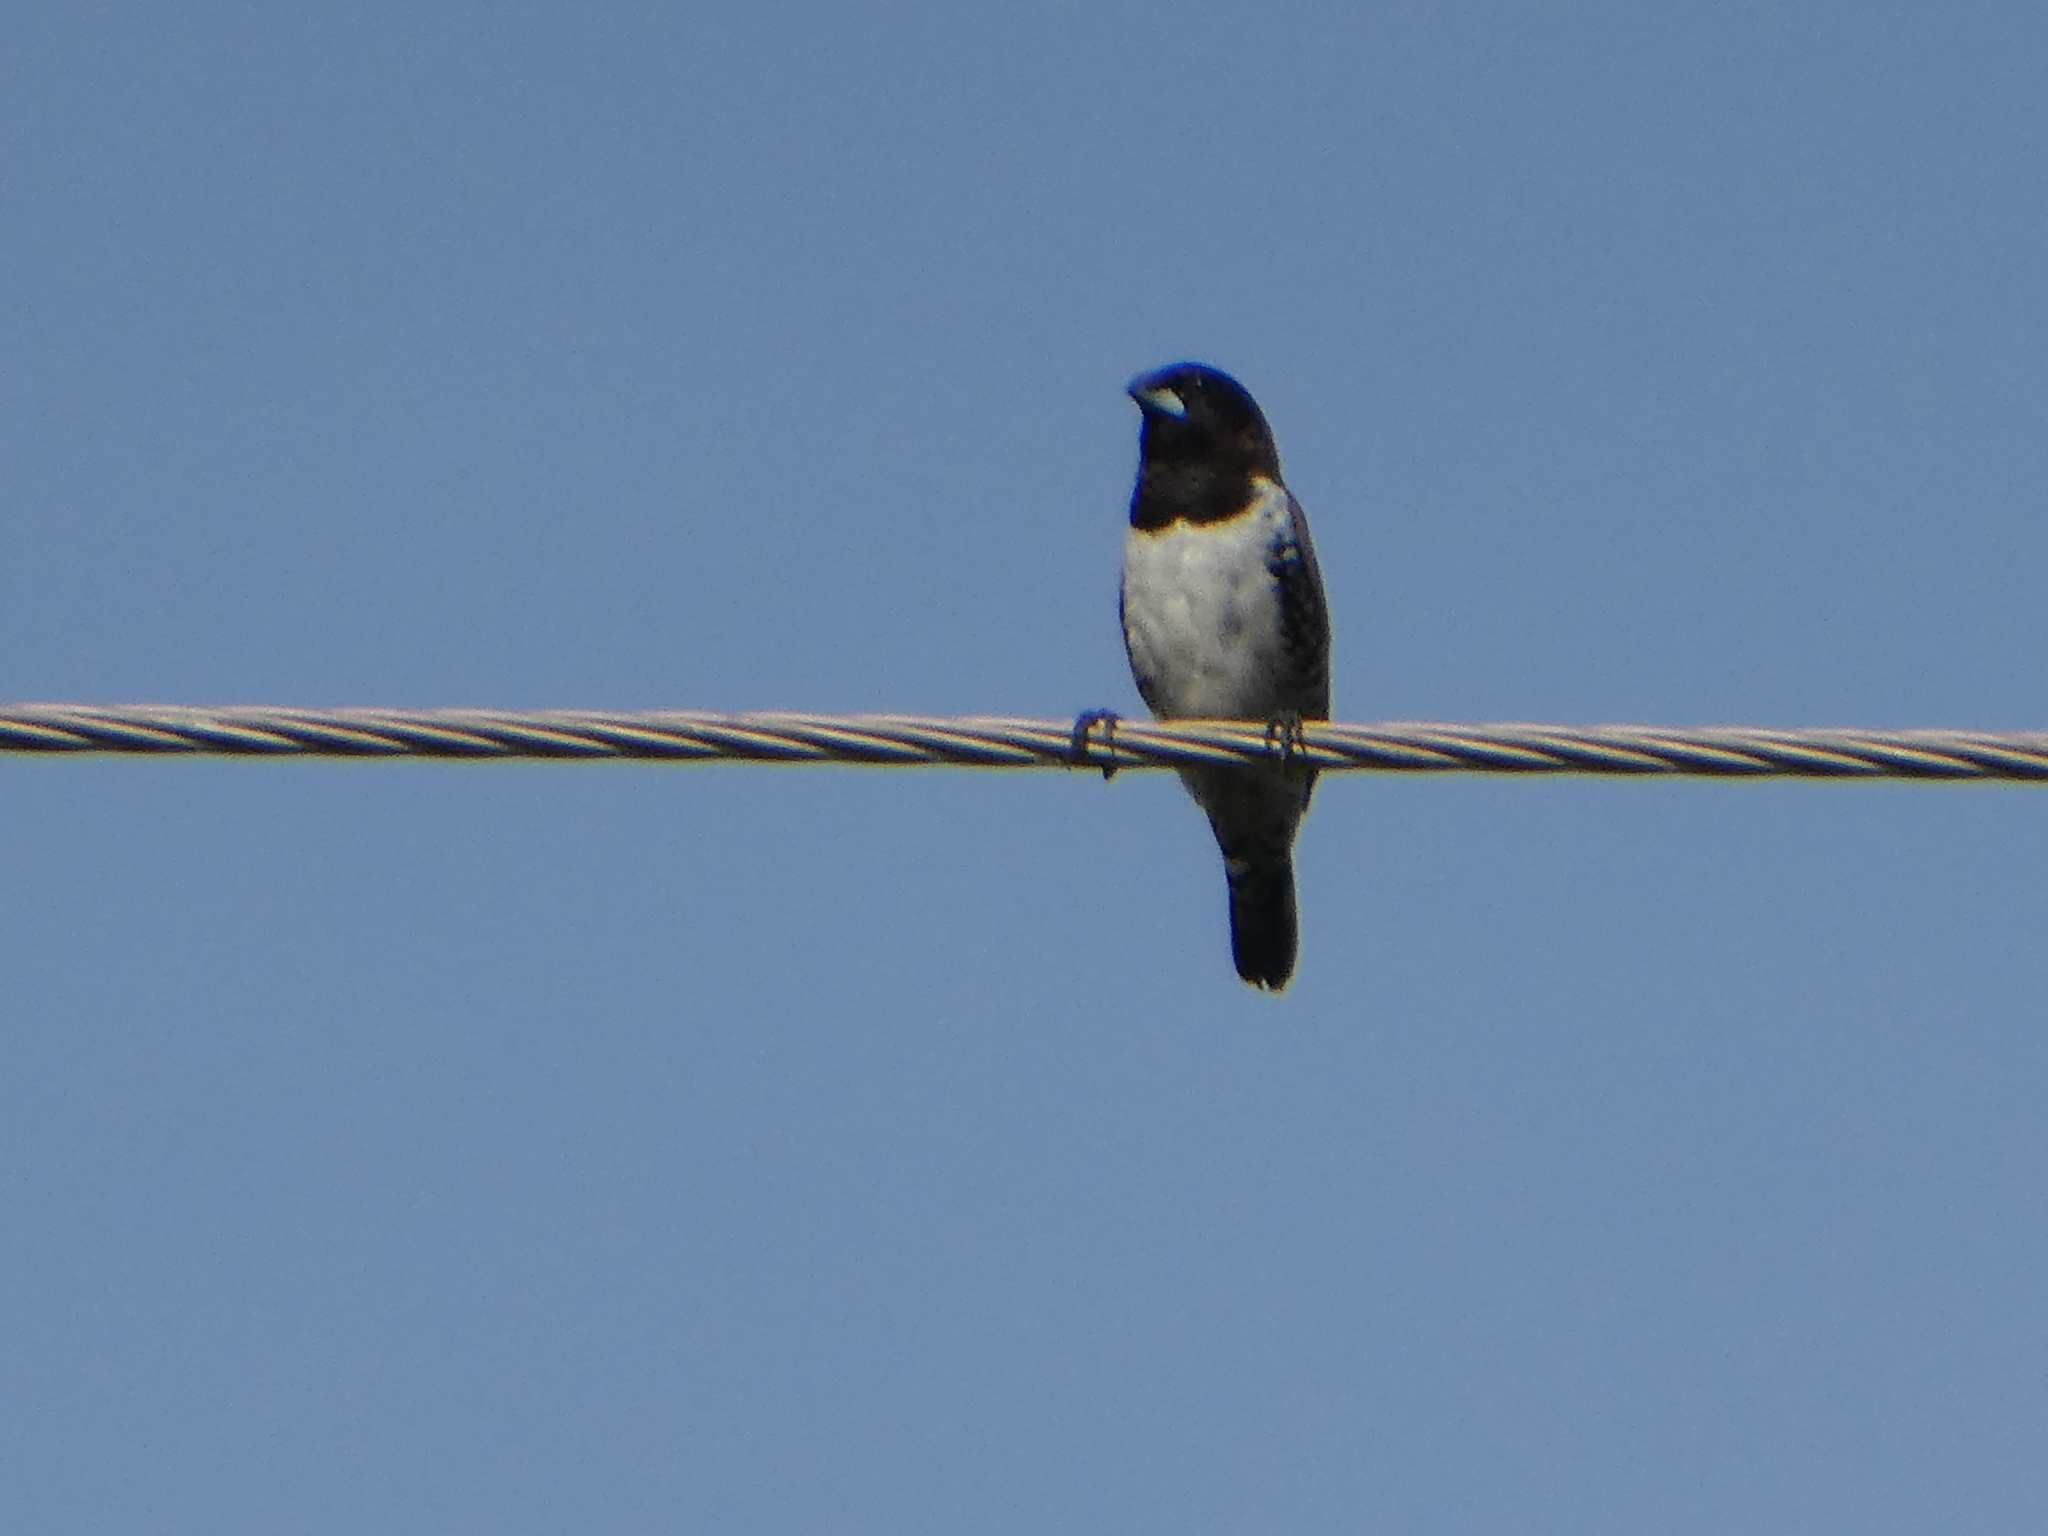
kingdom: Animalia
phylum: Chordata
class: Aves
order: Passeriformes
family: Estrildidae
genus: Lonchura
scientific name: Lonchura cucullata
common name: Bronze mannikin
